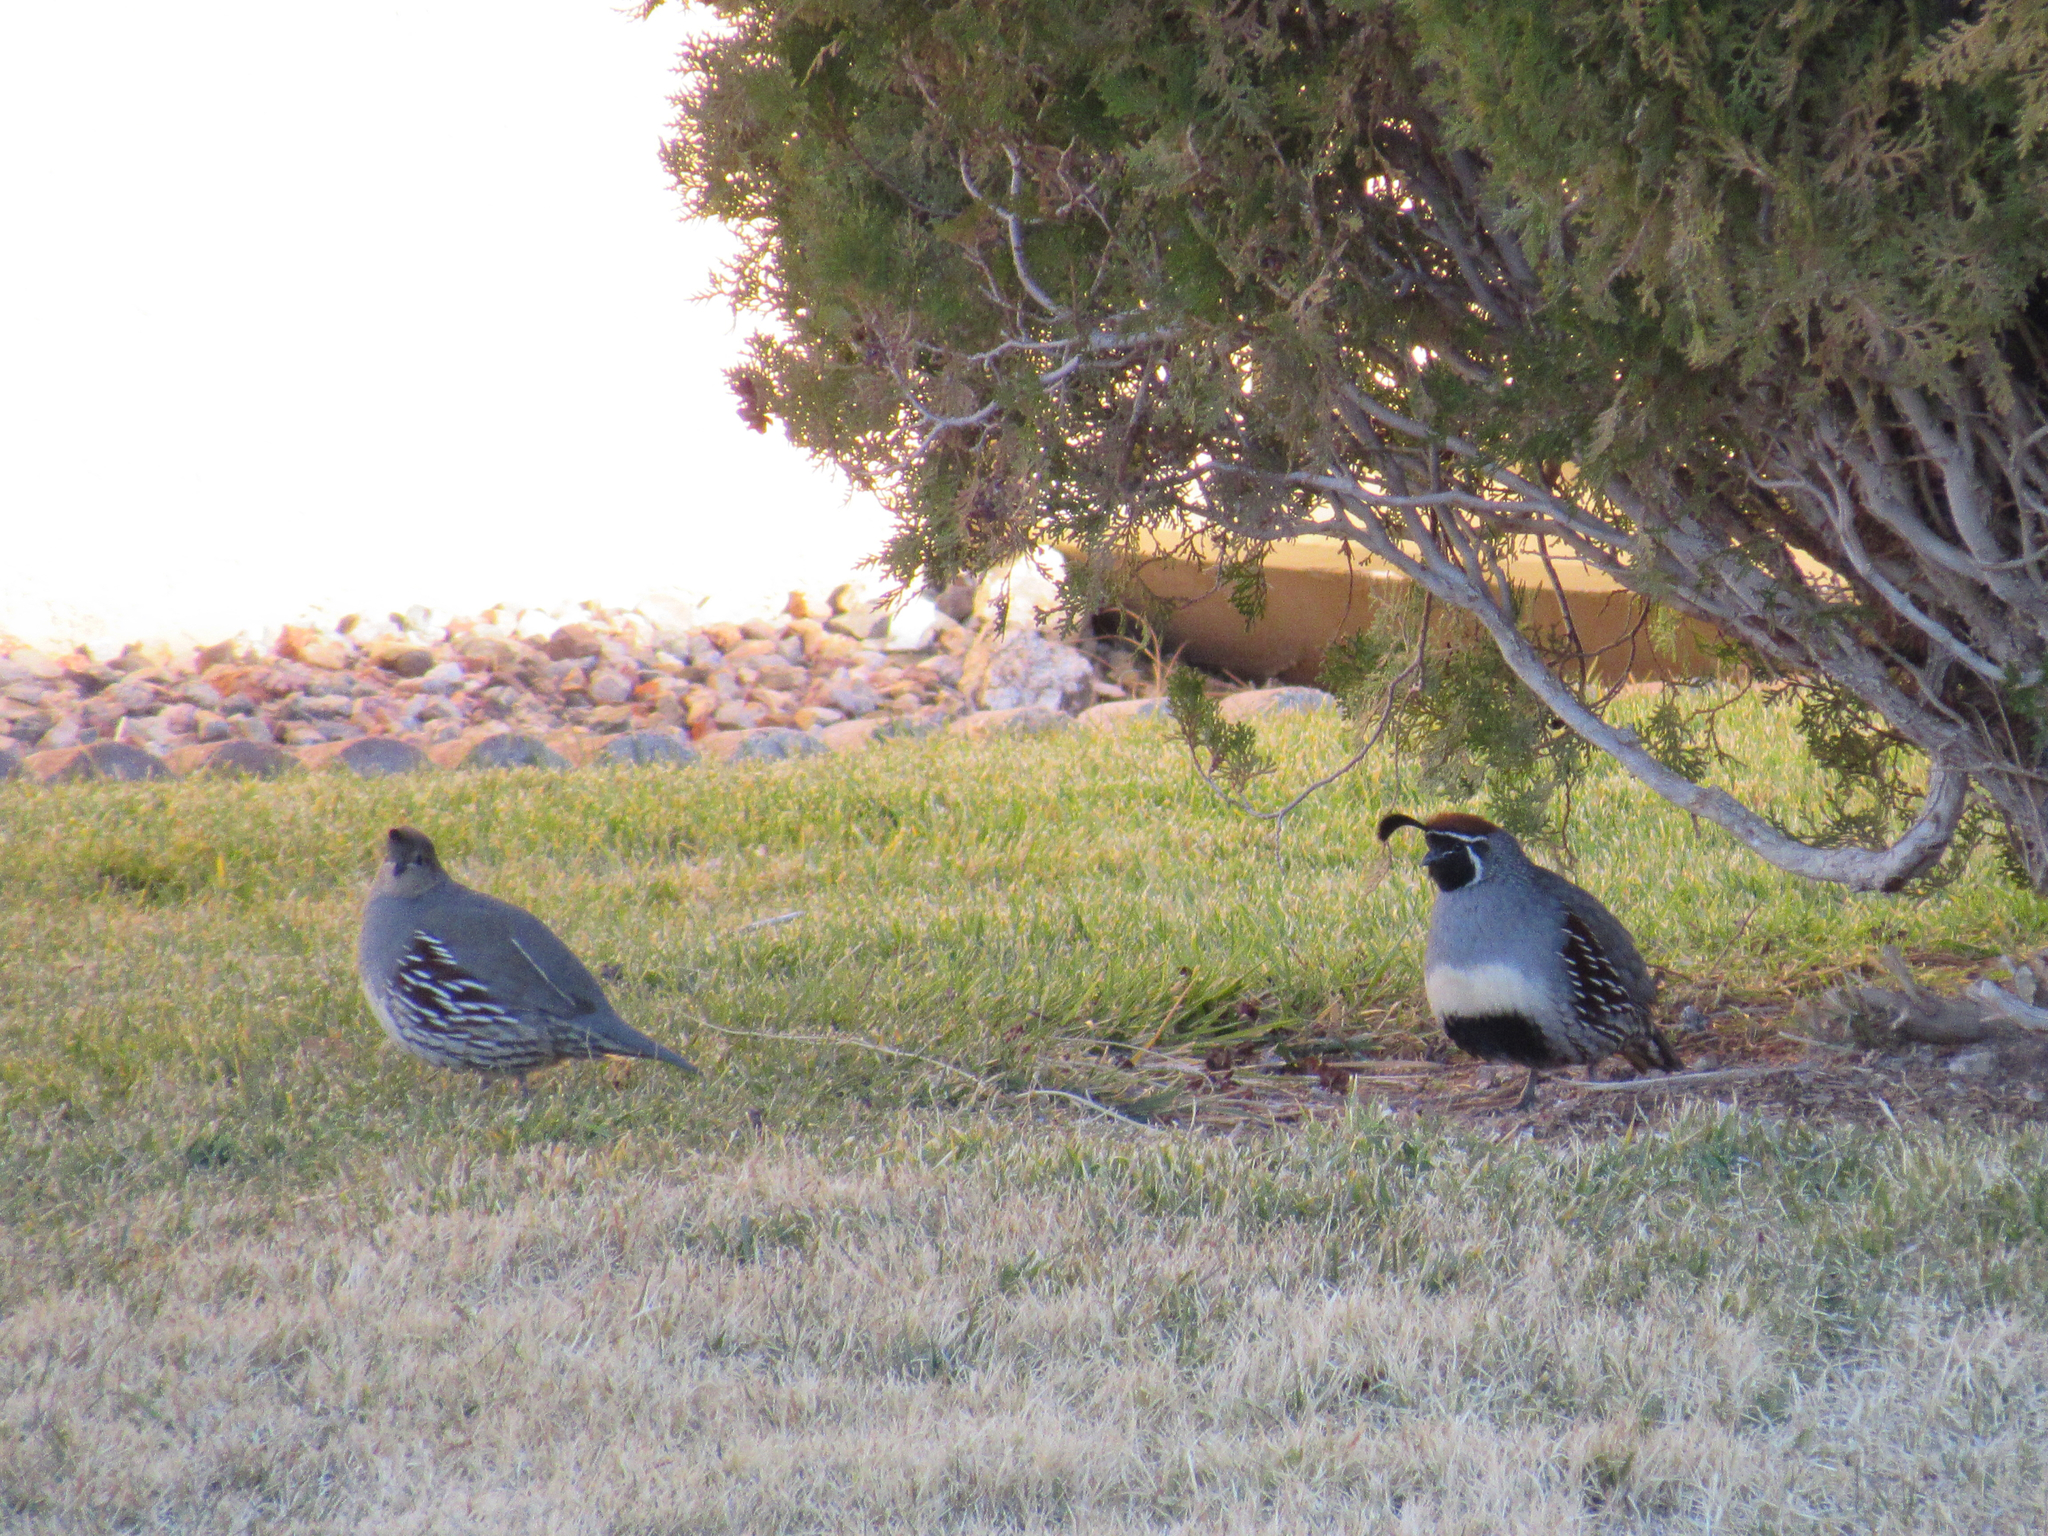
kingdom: Animalia
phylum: Chordata
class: Aves
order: Galliformes
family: Odontophoridae
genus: Callipepla
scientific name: Callipepla gambelii
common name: Gambel's quail
